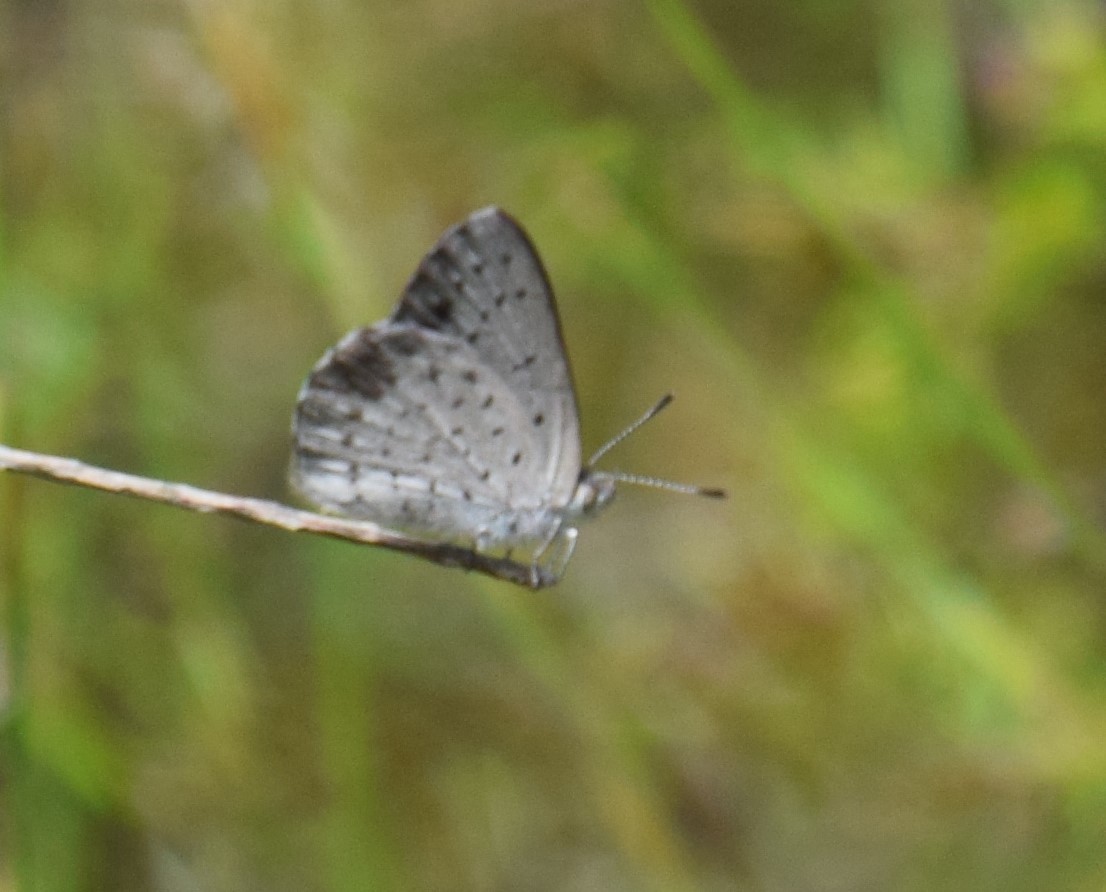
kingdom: Animalia
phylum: Arthropoda
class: Insecta
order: Lepidoptera
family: Lycaenidae
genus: Candalides
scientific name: Candalides
